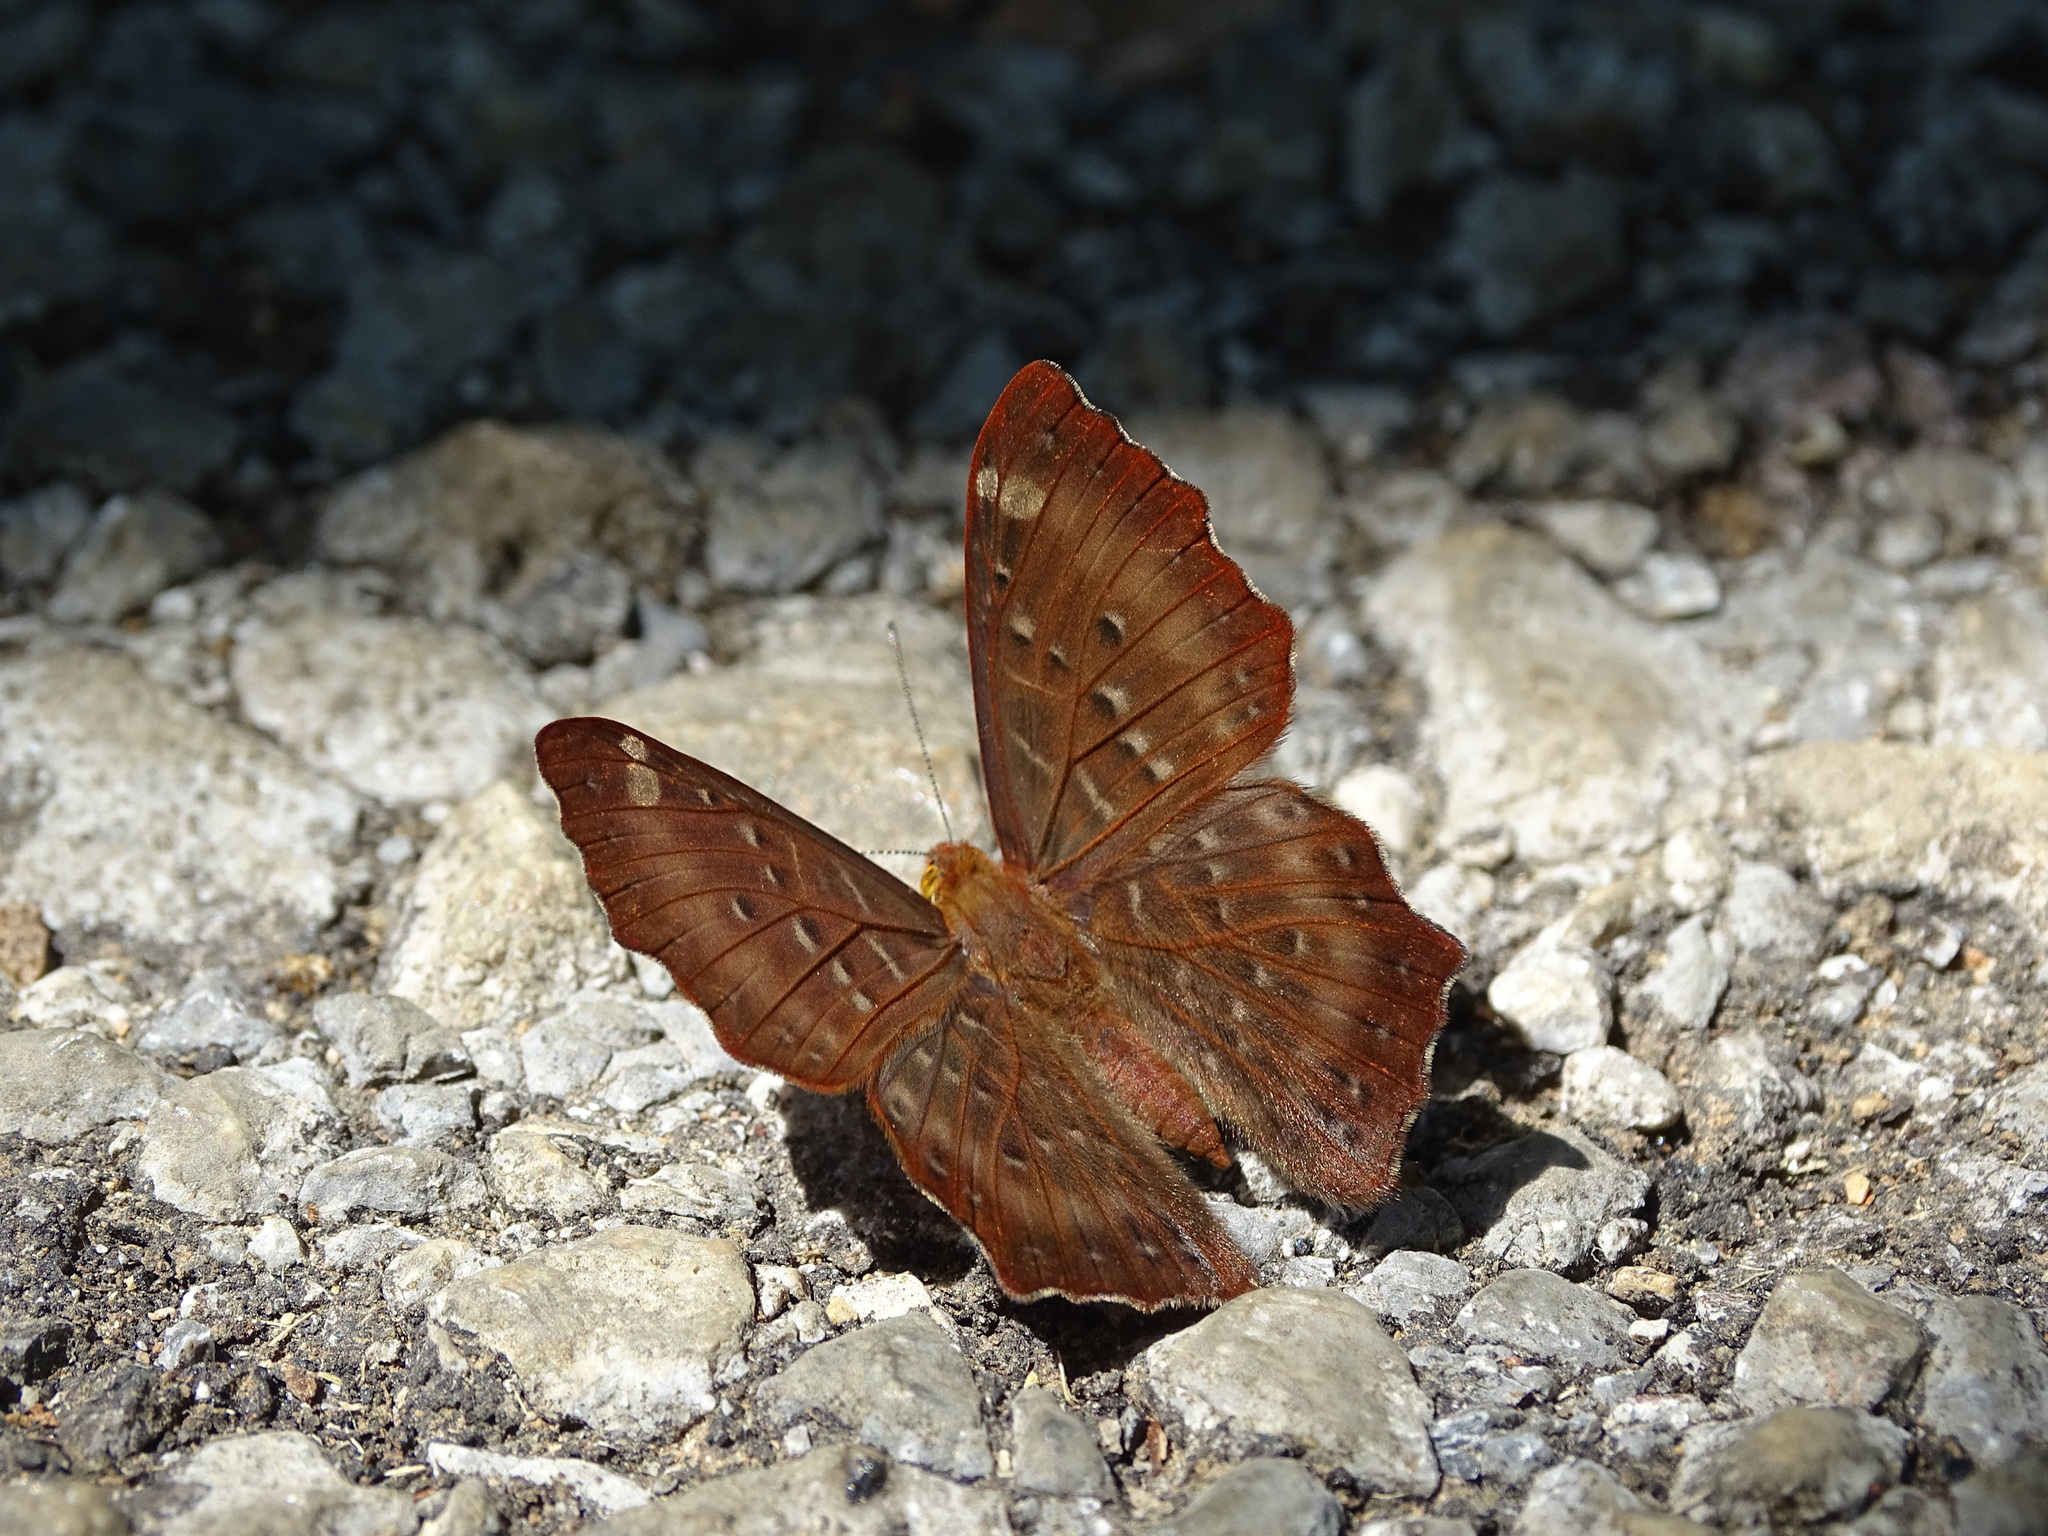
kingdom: Animalia
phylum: Arthropoda
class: Insecta
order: Lepidoptera
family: Riodinidae
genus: Zemeros
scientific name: Zemeros flegyas
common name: Punchinello
